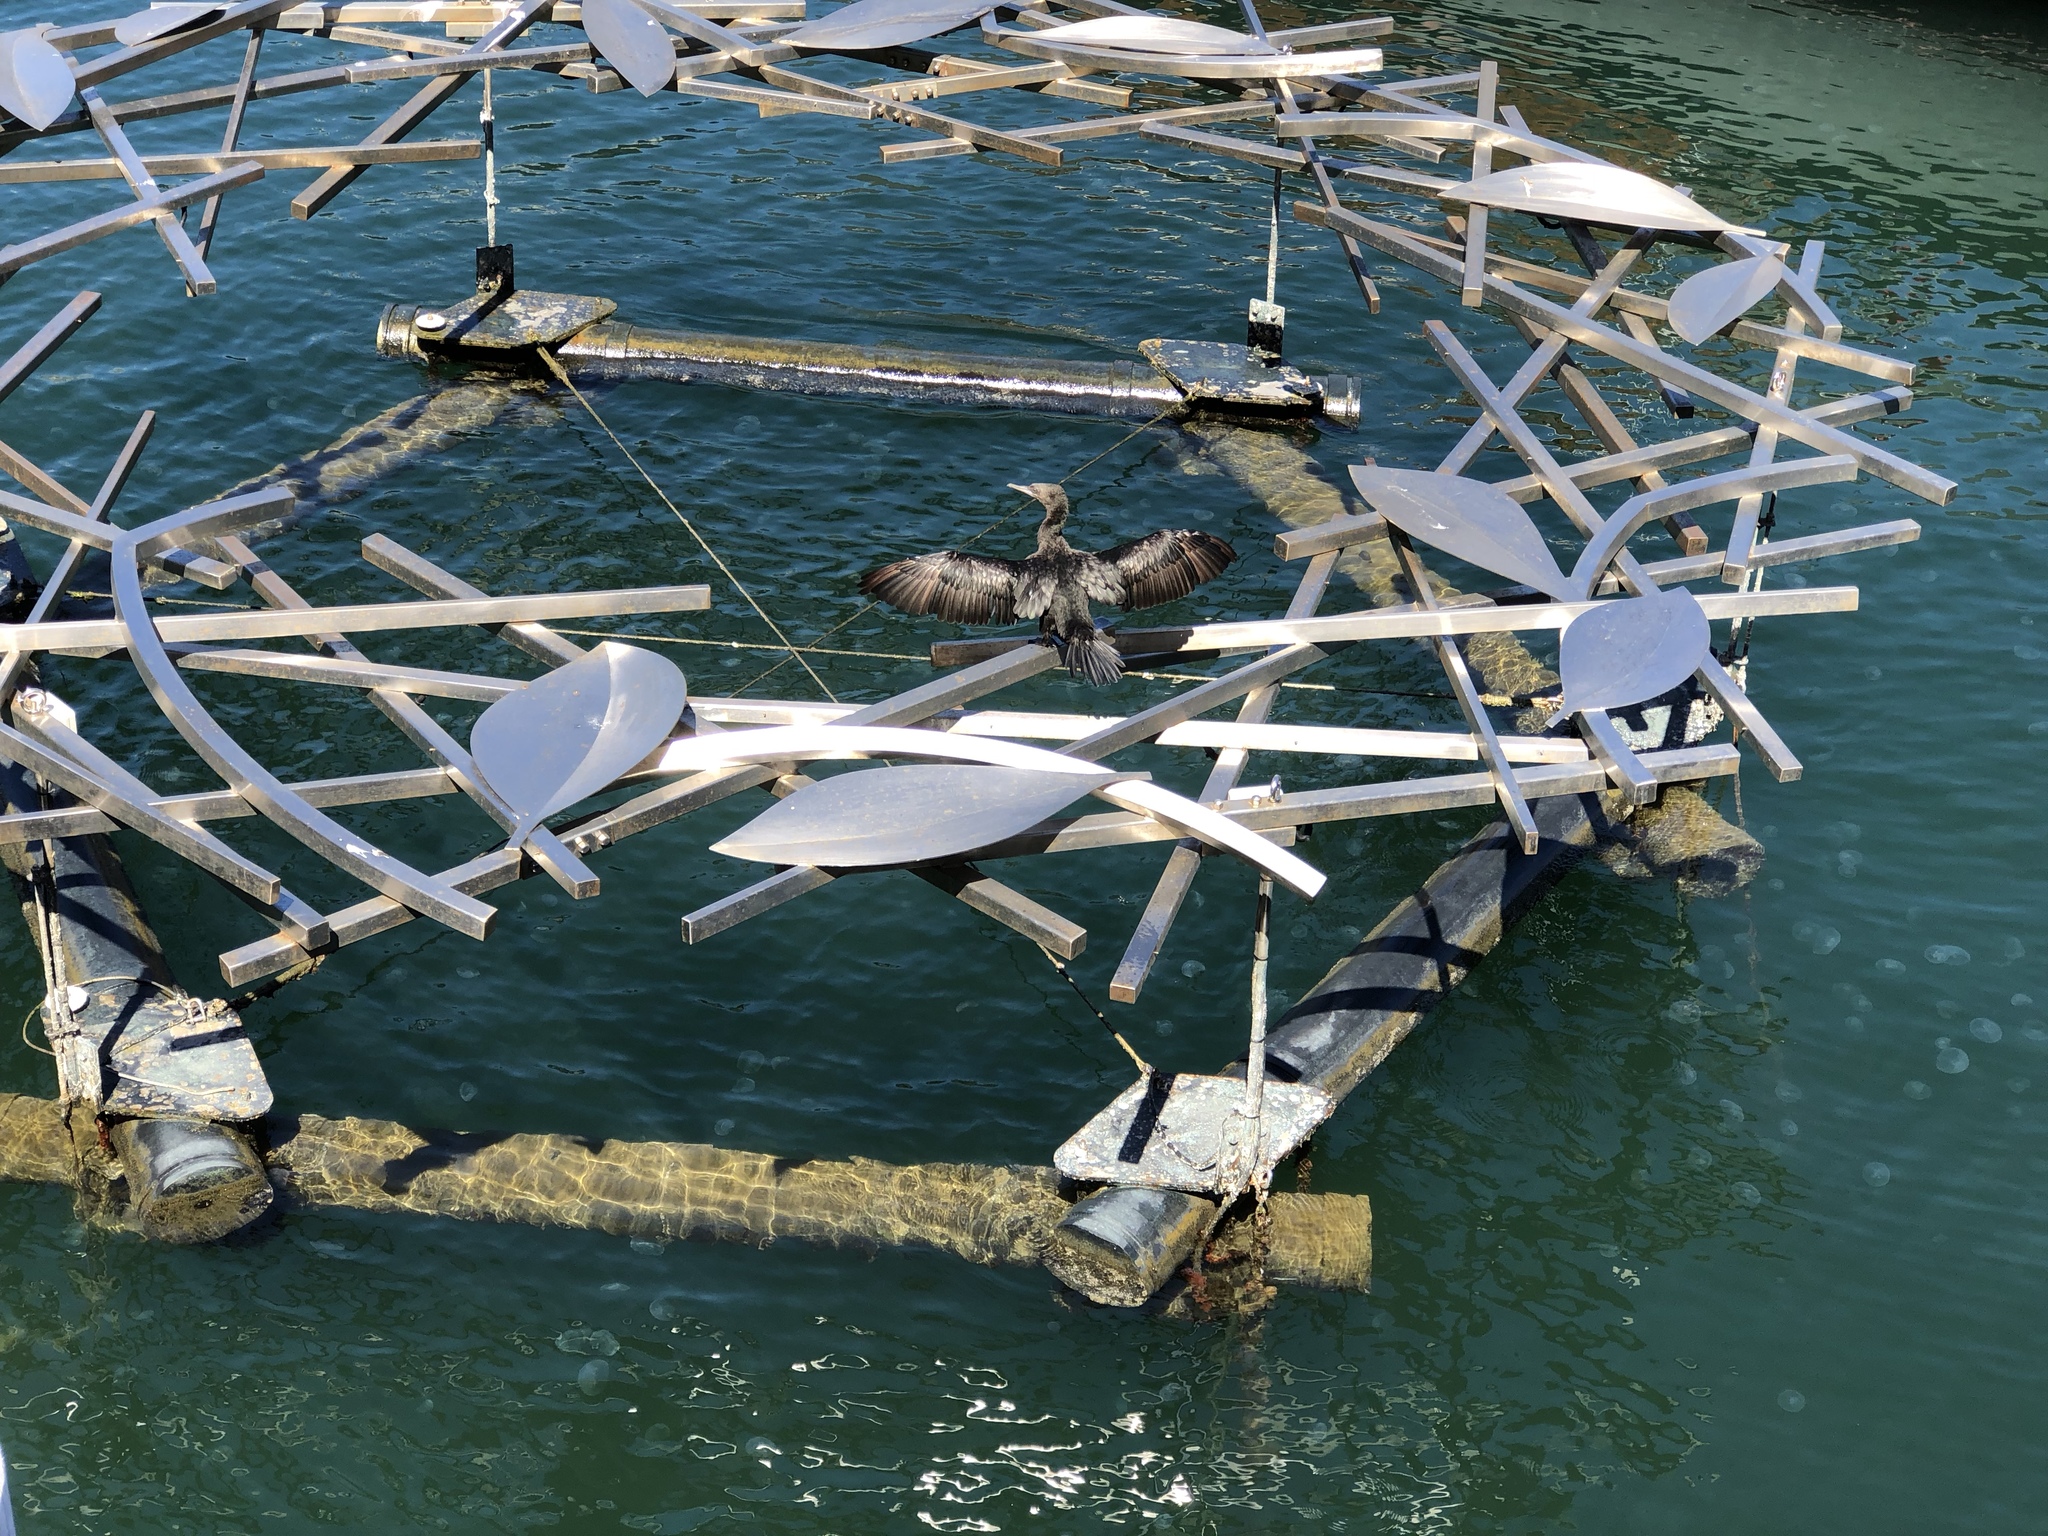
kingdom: Animalia
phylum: Chordata
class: Aves
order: Suliformes
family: Phalacrocoracidae
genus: Phalacrocorax
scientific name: Phalacrocorax sulcirostris
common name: Little black cormorant
